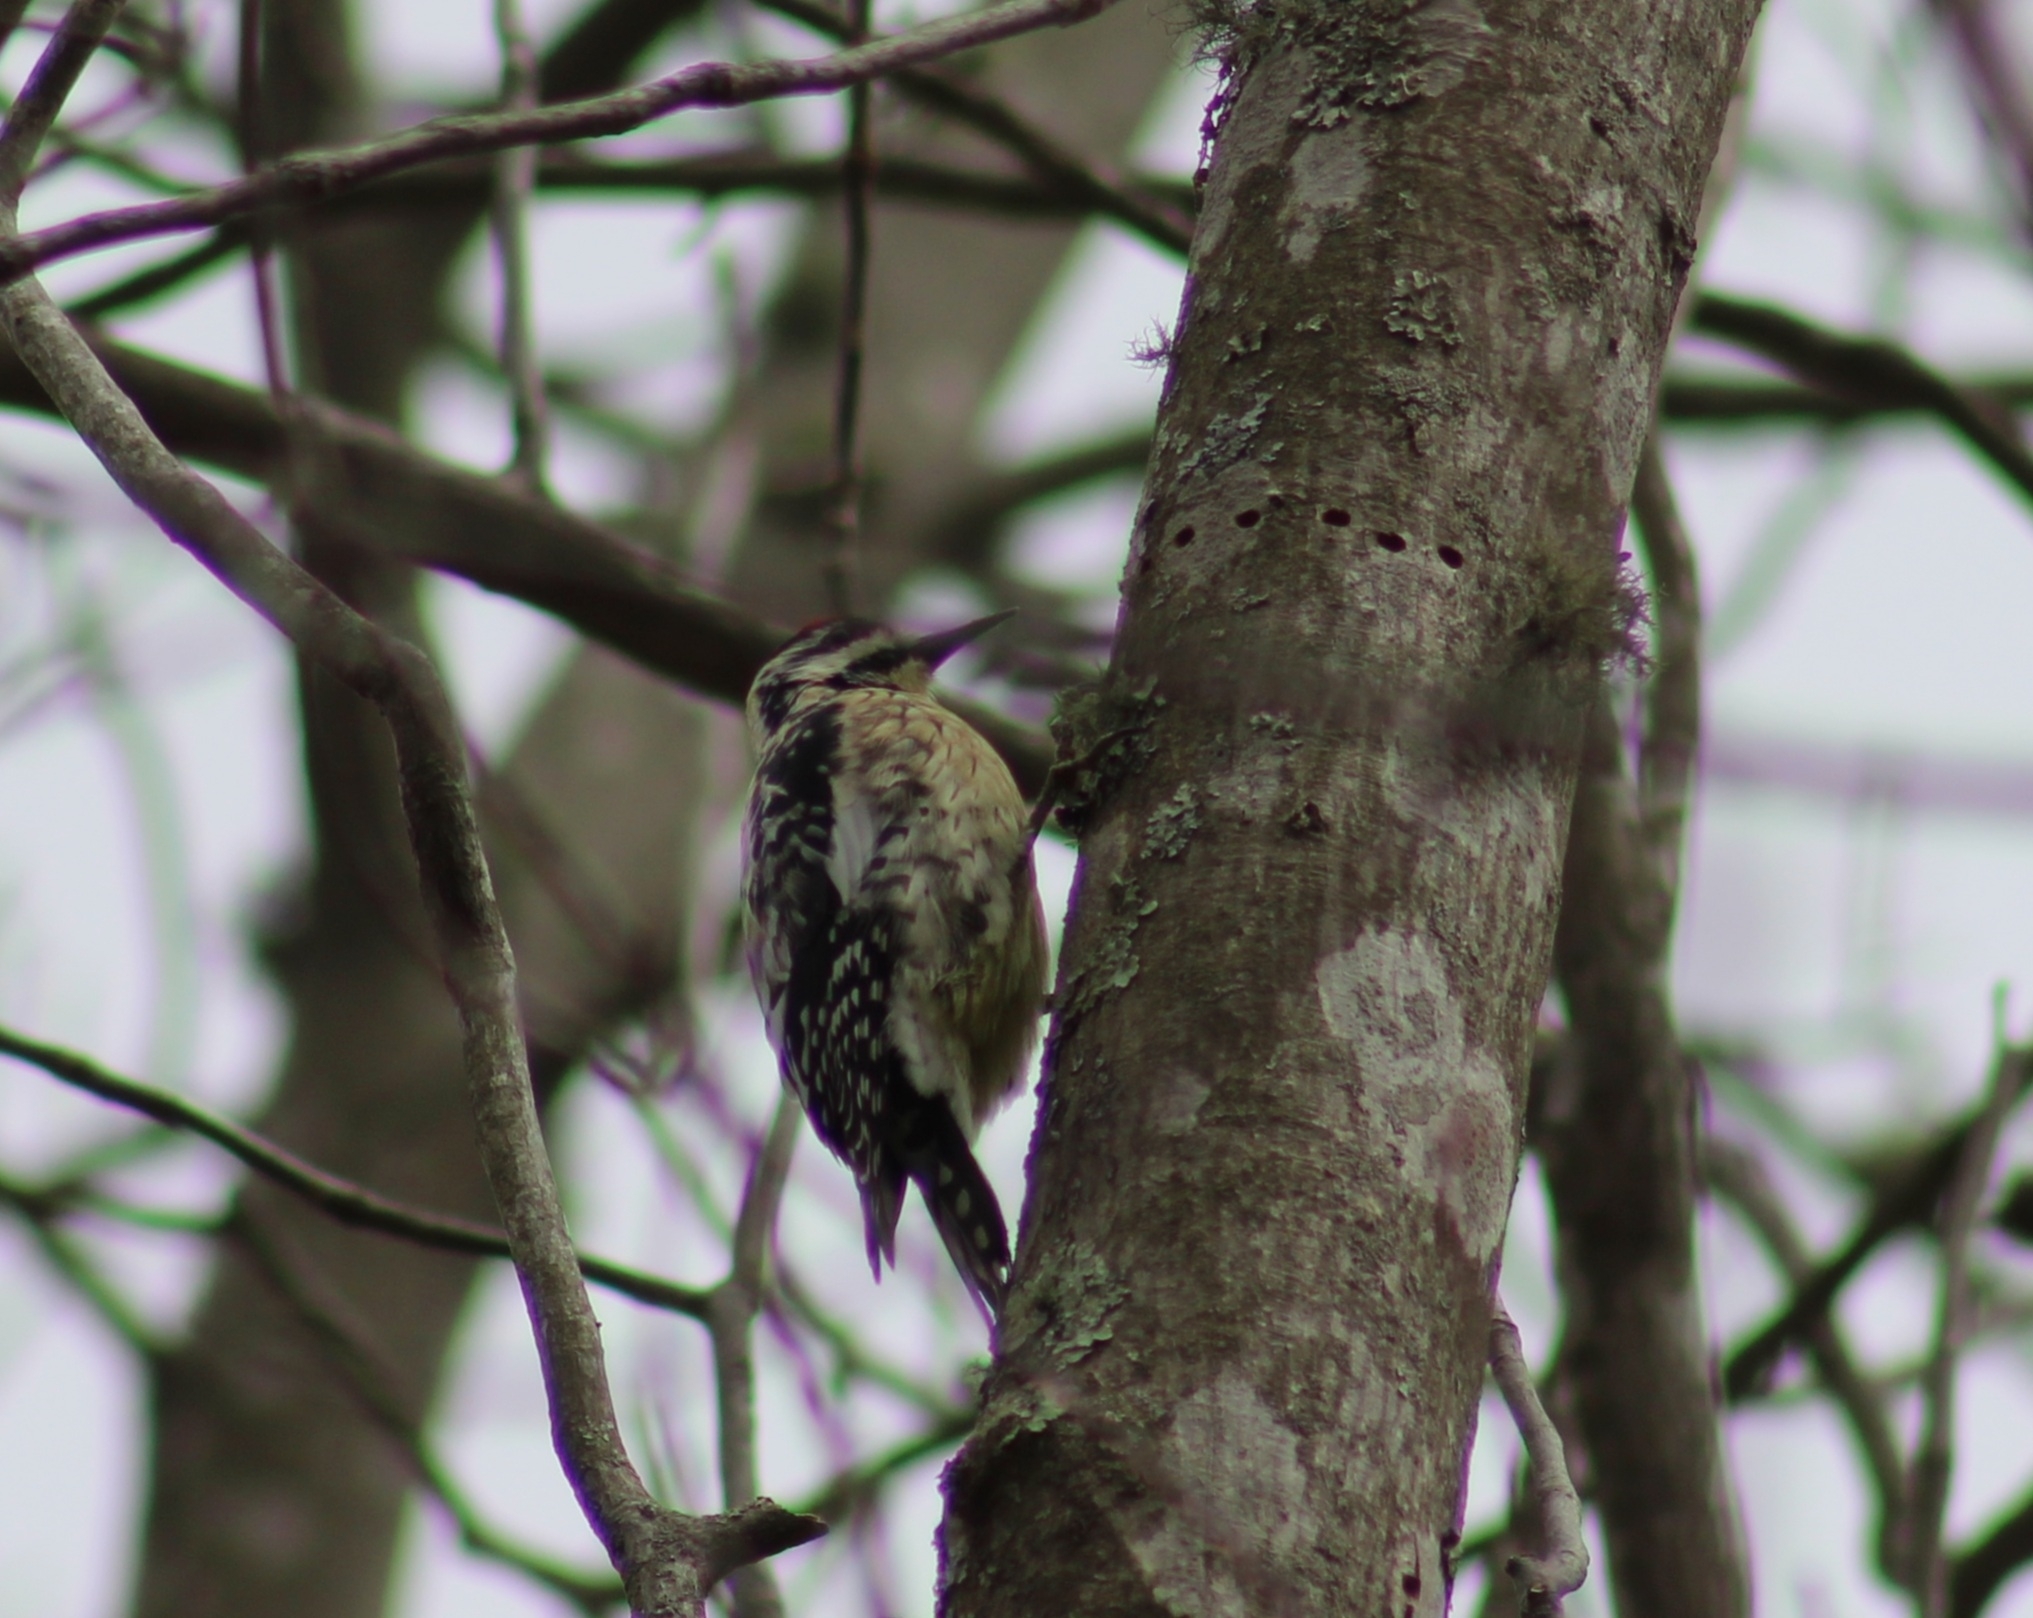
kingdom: Animalia
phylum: Chordata
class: Aves
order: Piciformes
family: Picidae
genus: Sphyrapicus
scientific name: Sphyrapicus varius
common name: Yellow-bellied sapsucker
